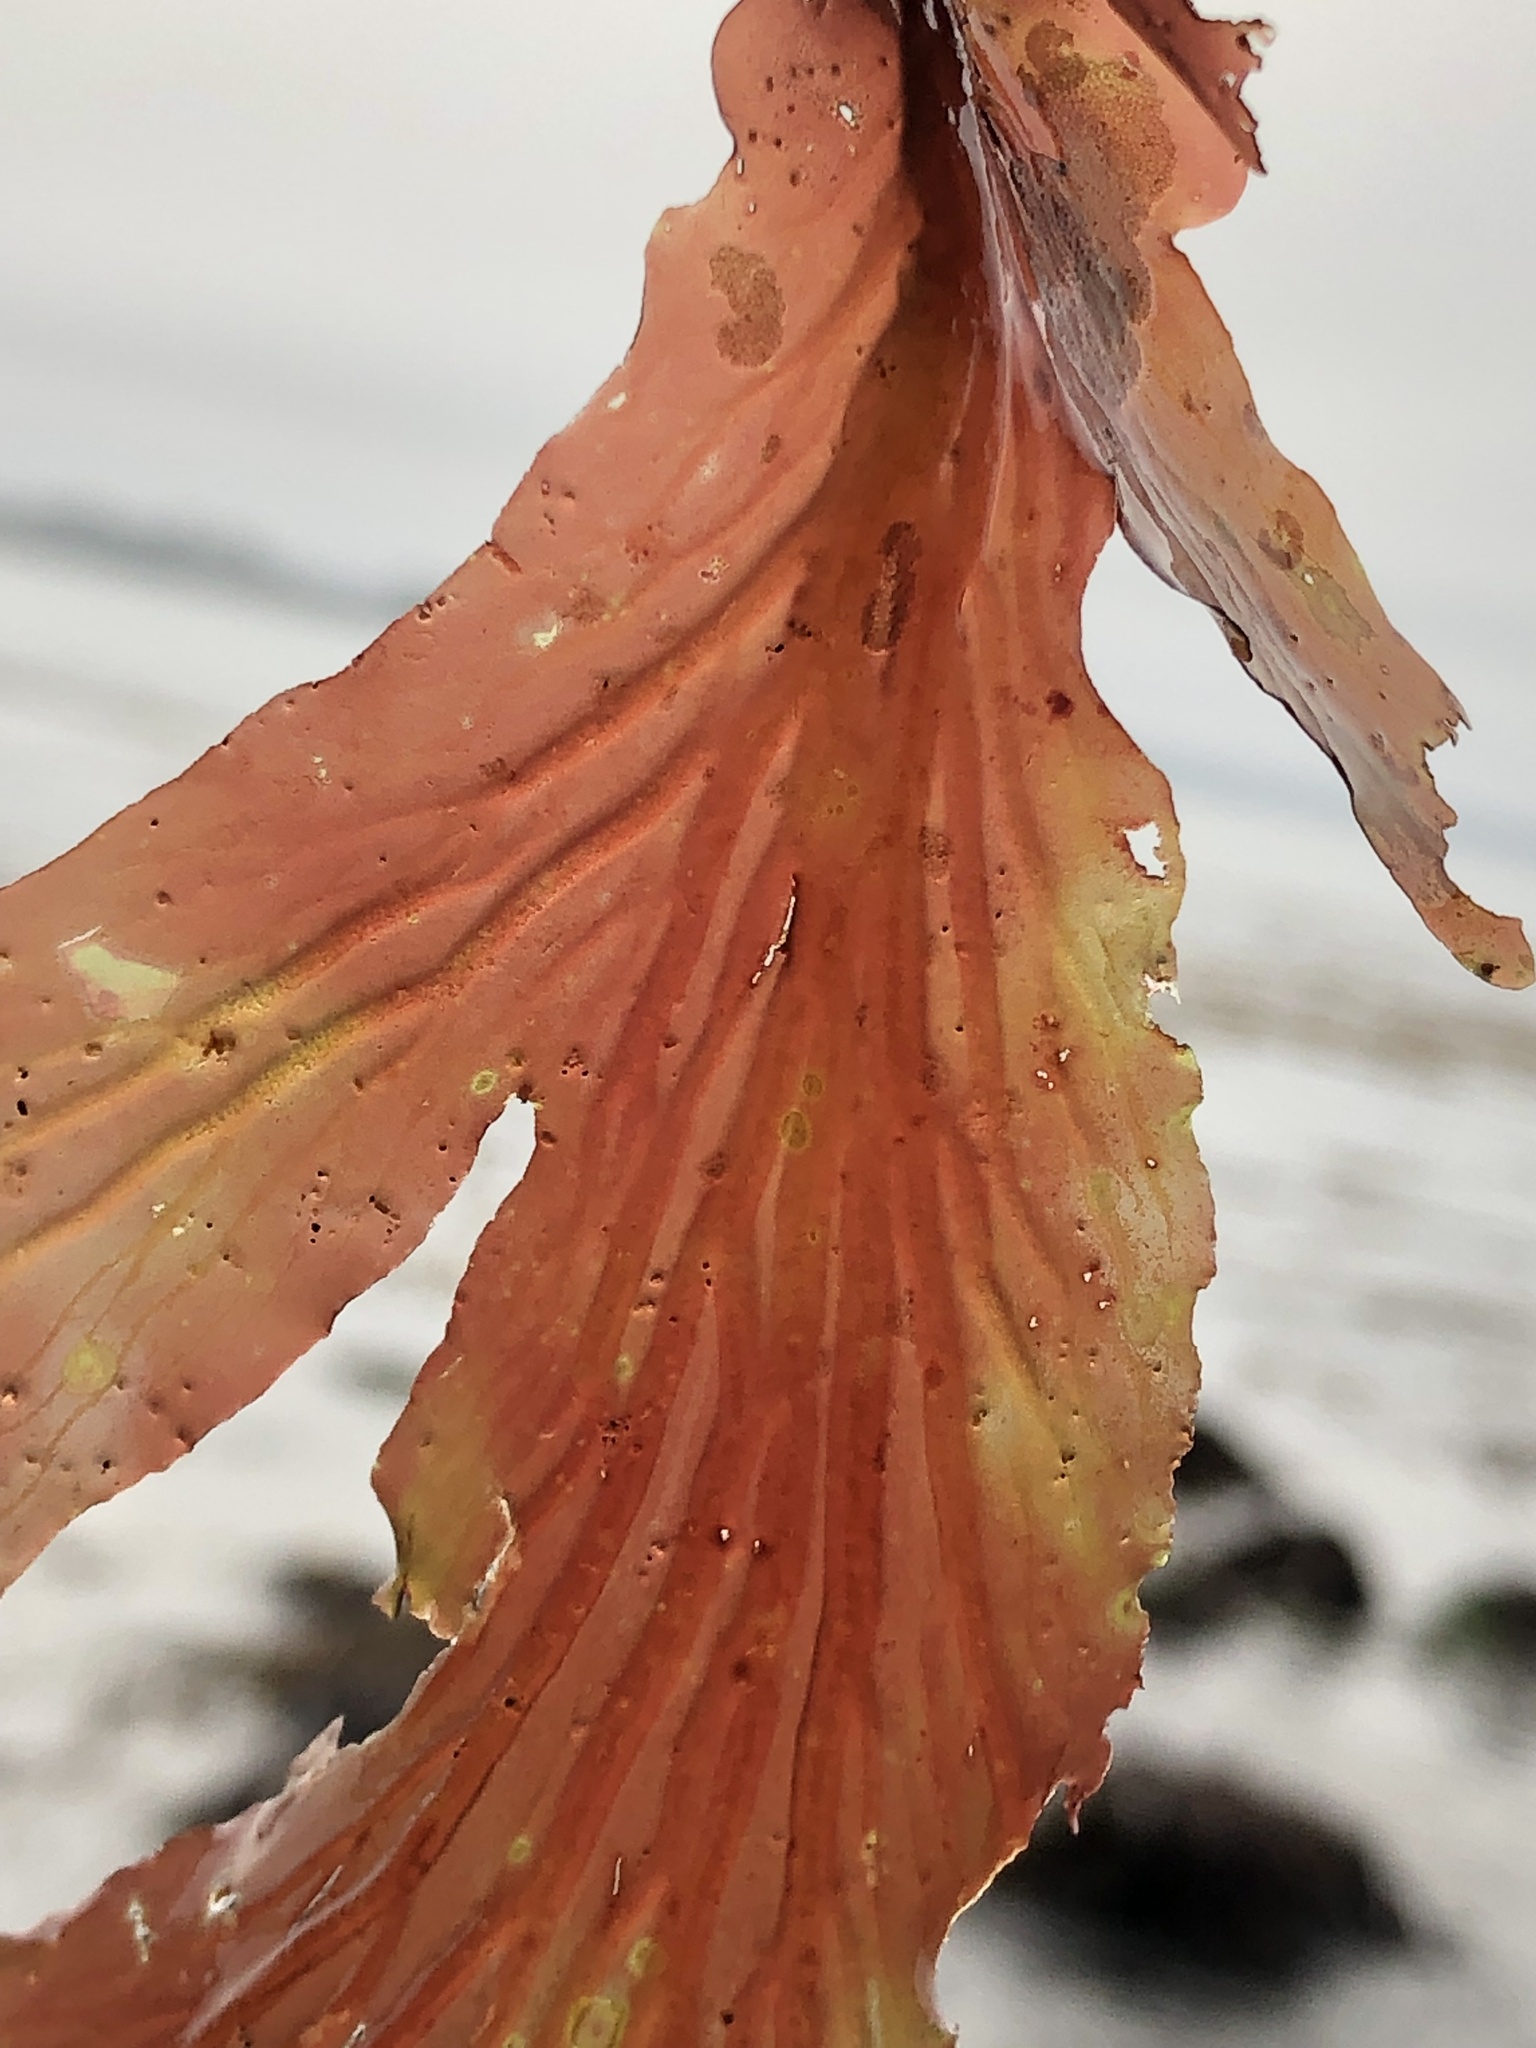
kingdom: Plantae
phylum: Rhodophyta
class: Florideophyceae
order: Ceramiales
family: Delesseriaceae
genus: Hymenena
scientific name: Hymenena flabelligera
